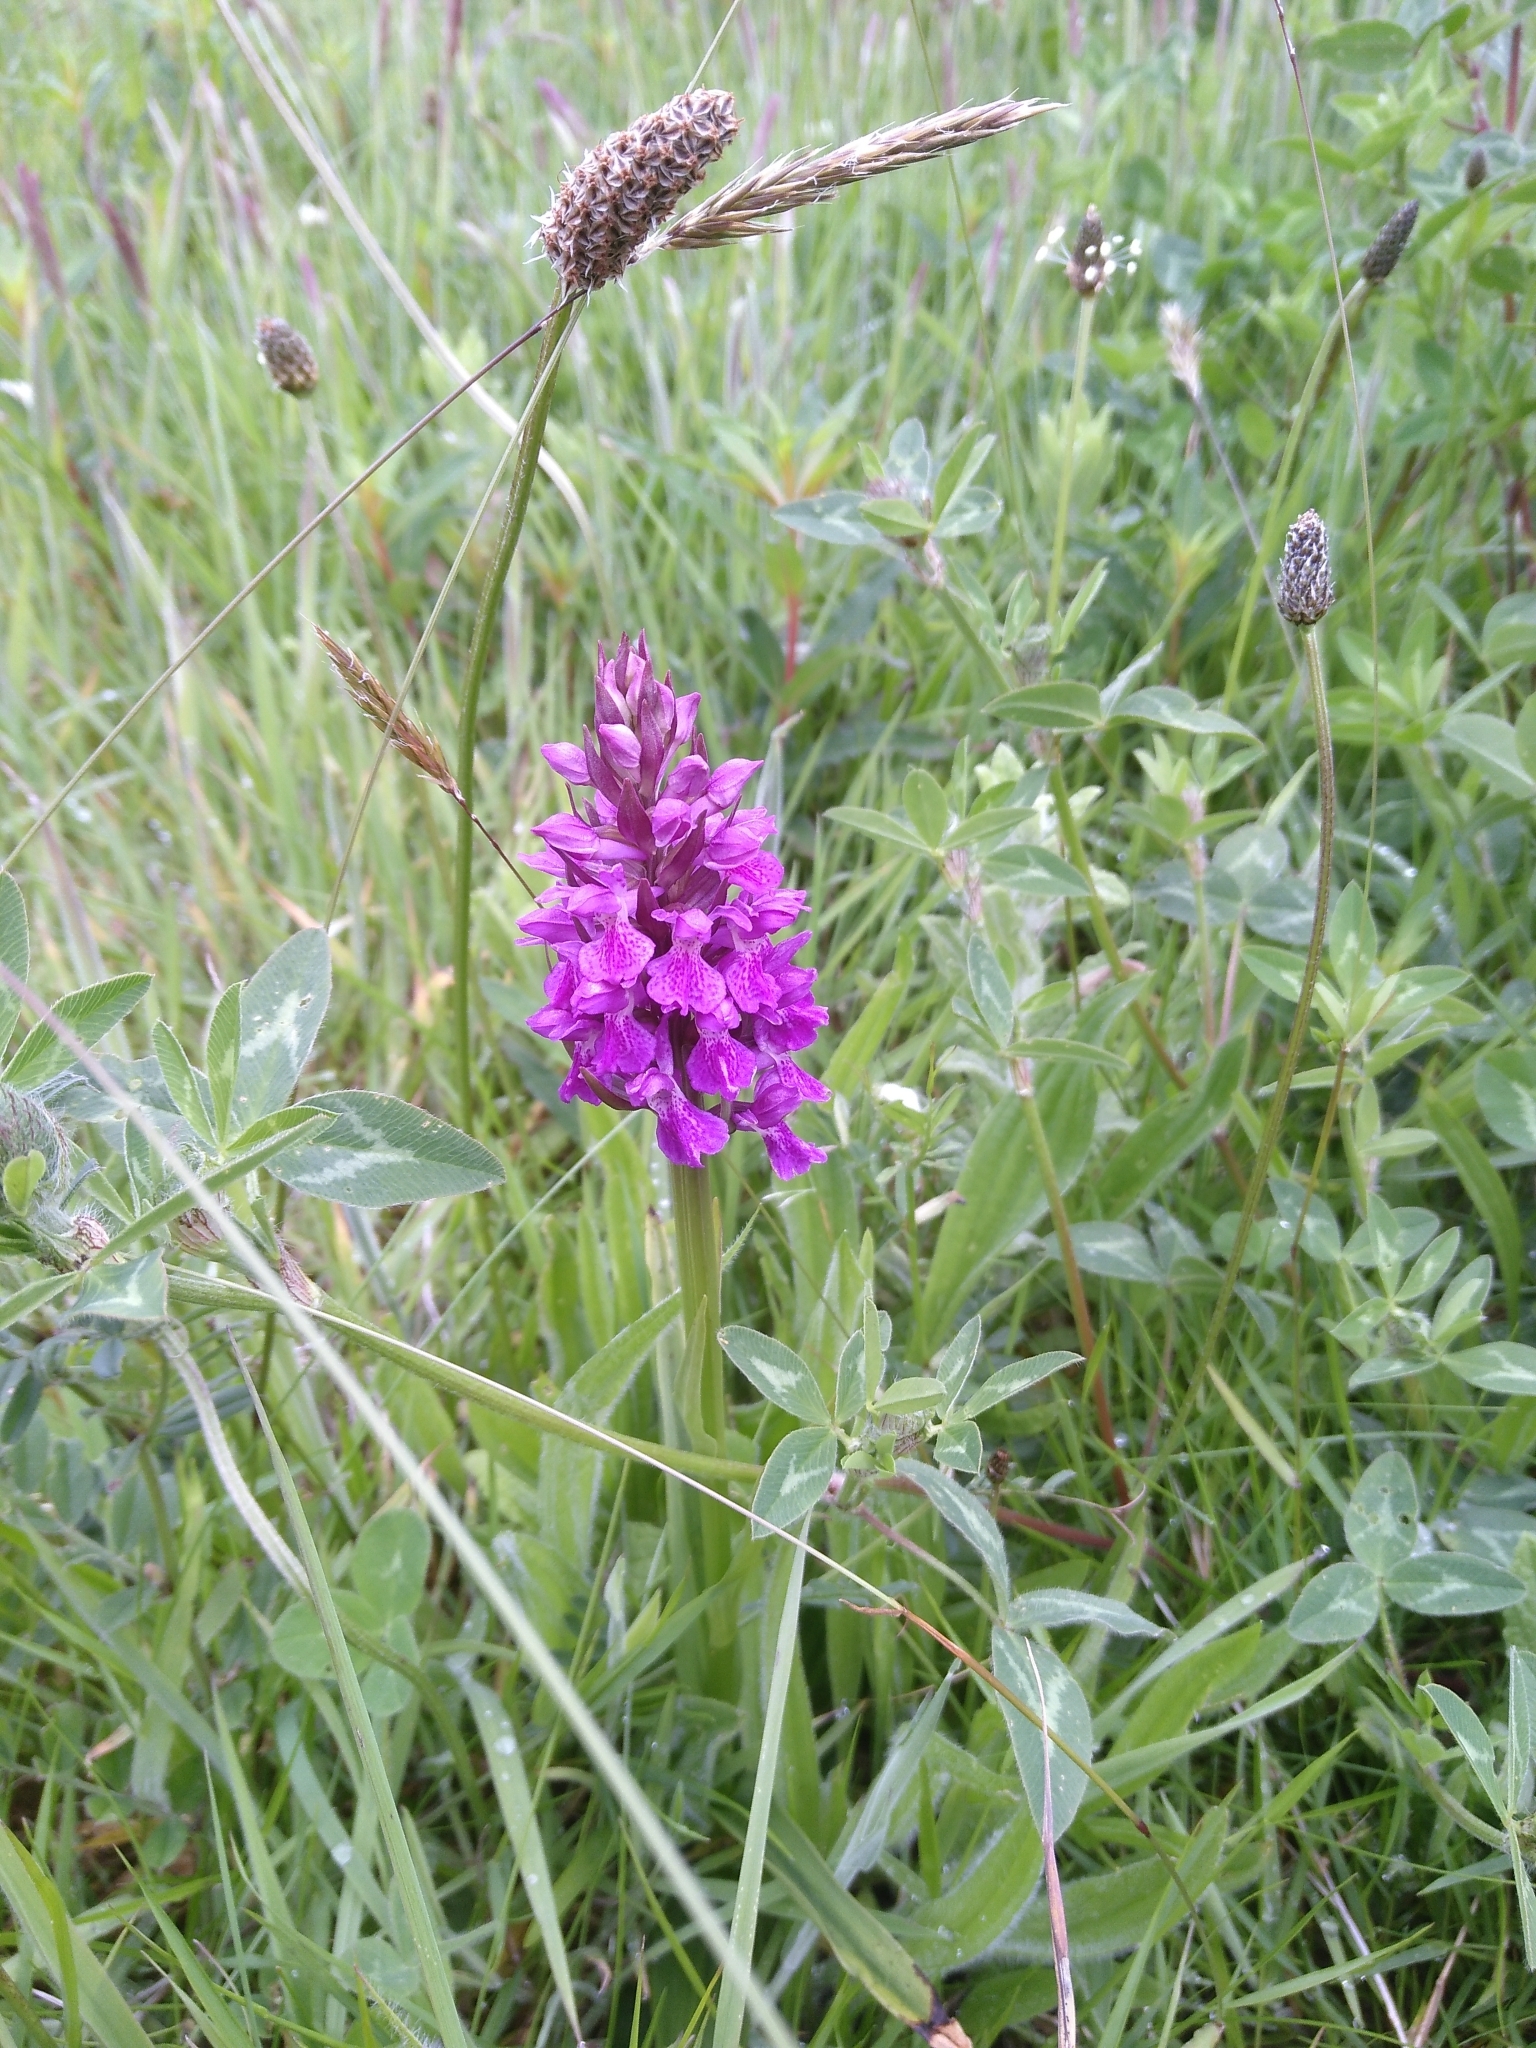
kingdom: Plantae
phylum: Tracheophyta
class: Liliopsida
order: Asparagales
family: Orchidaceae
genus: Dactylorhiza
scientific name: Dactylorhiza majalis
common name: Marsh orchid
